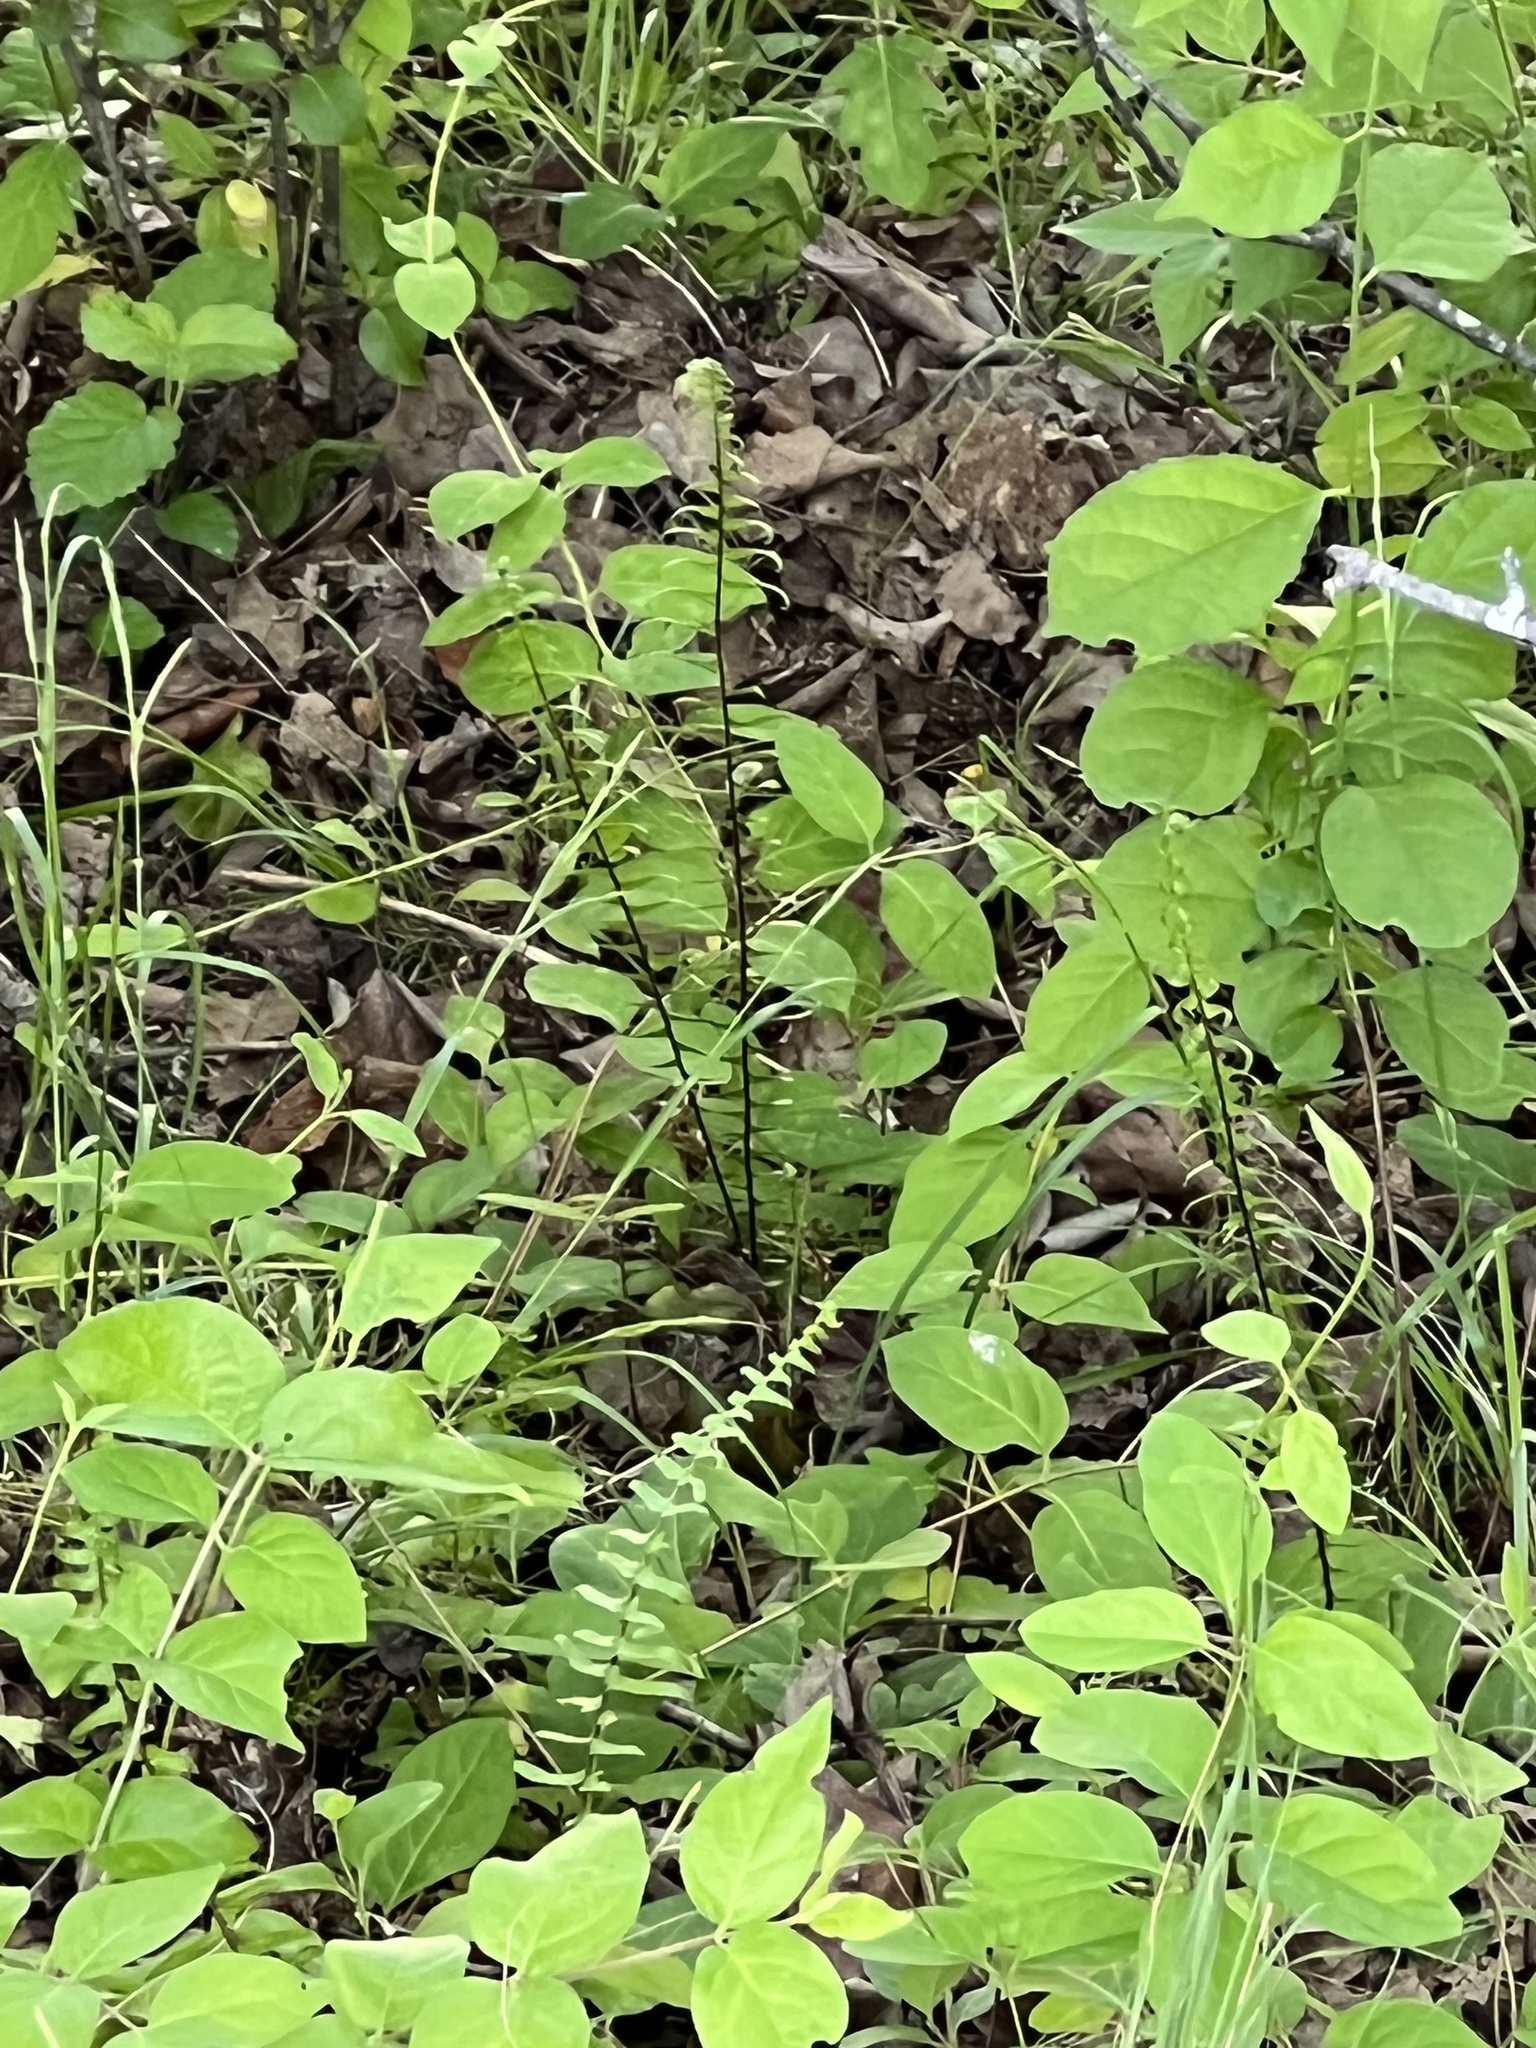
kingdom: Plantae
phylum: Tracheophyta
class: Polypodiopsida
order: Polypodiales
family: Aspleniaceae
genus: Asplenium
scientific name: Asplenium platyneuron
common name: Ebony spleenwort
